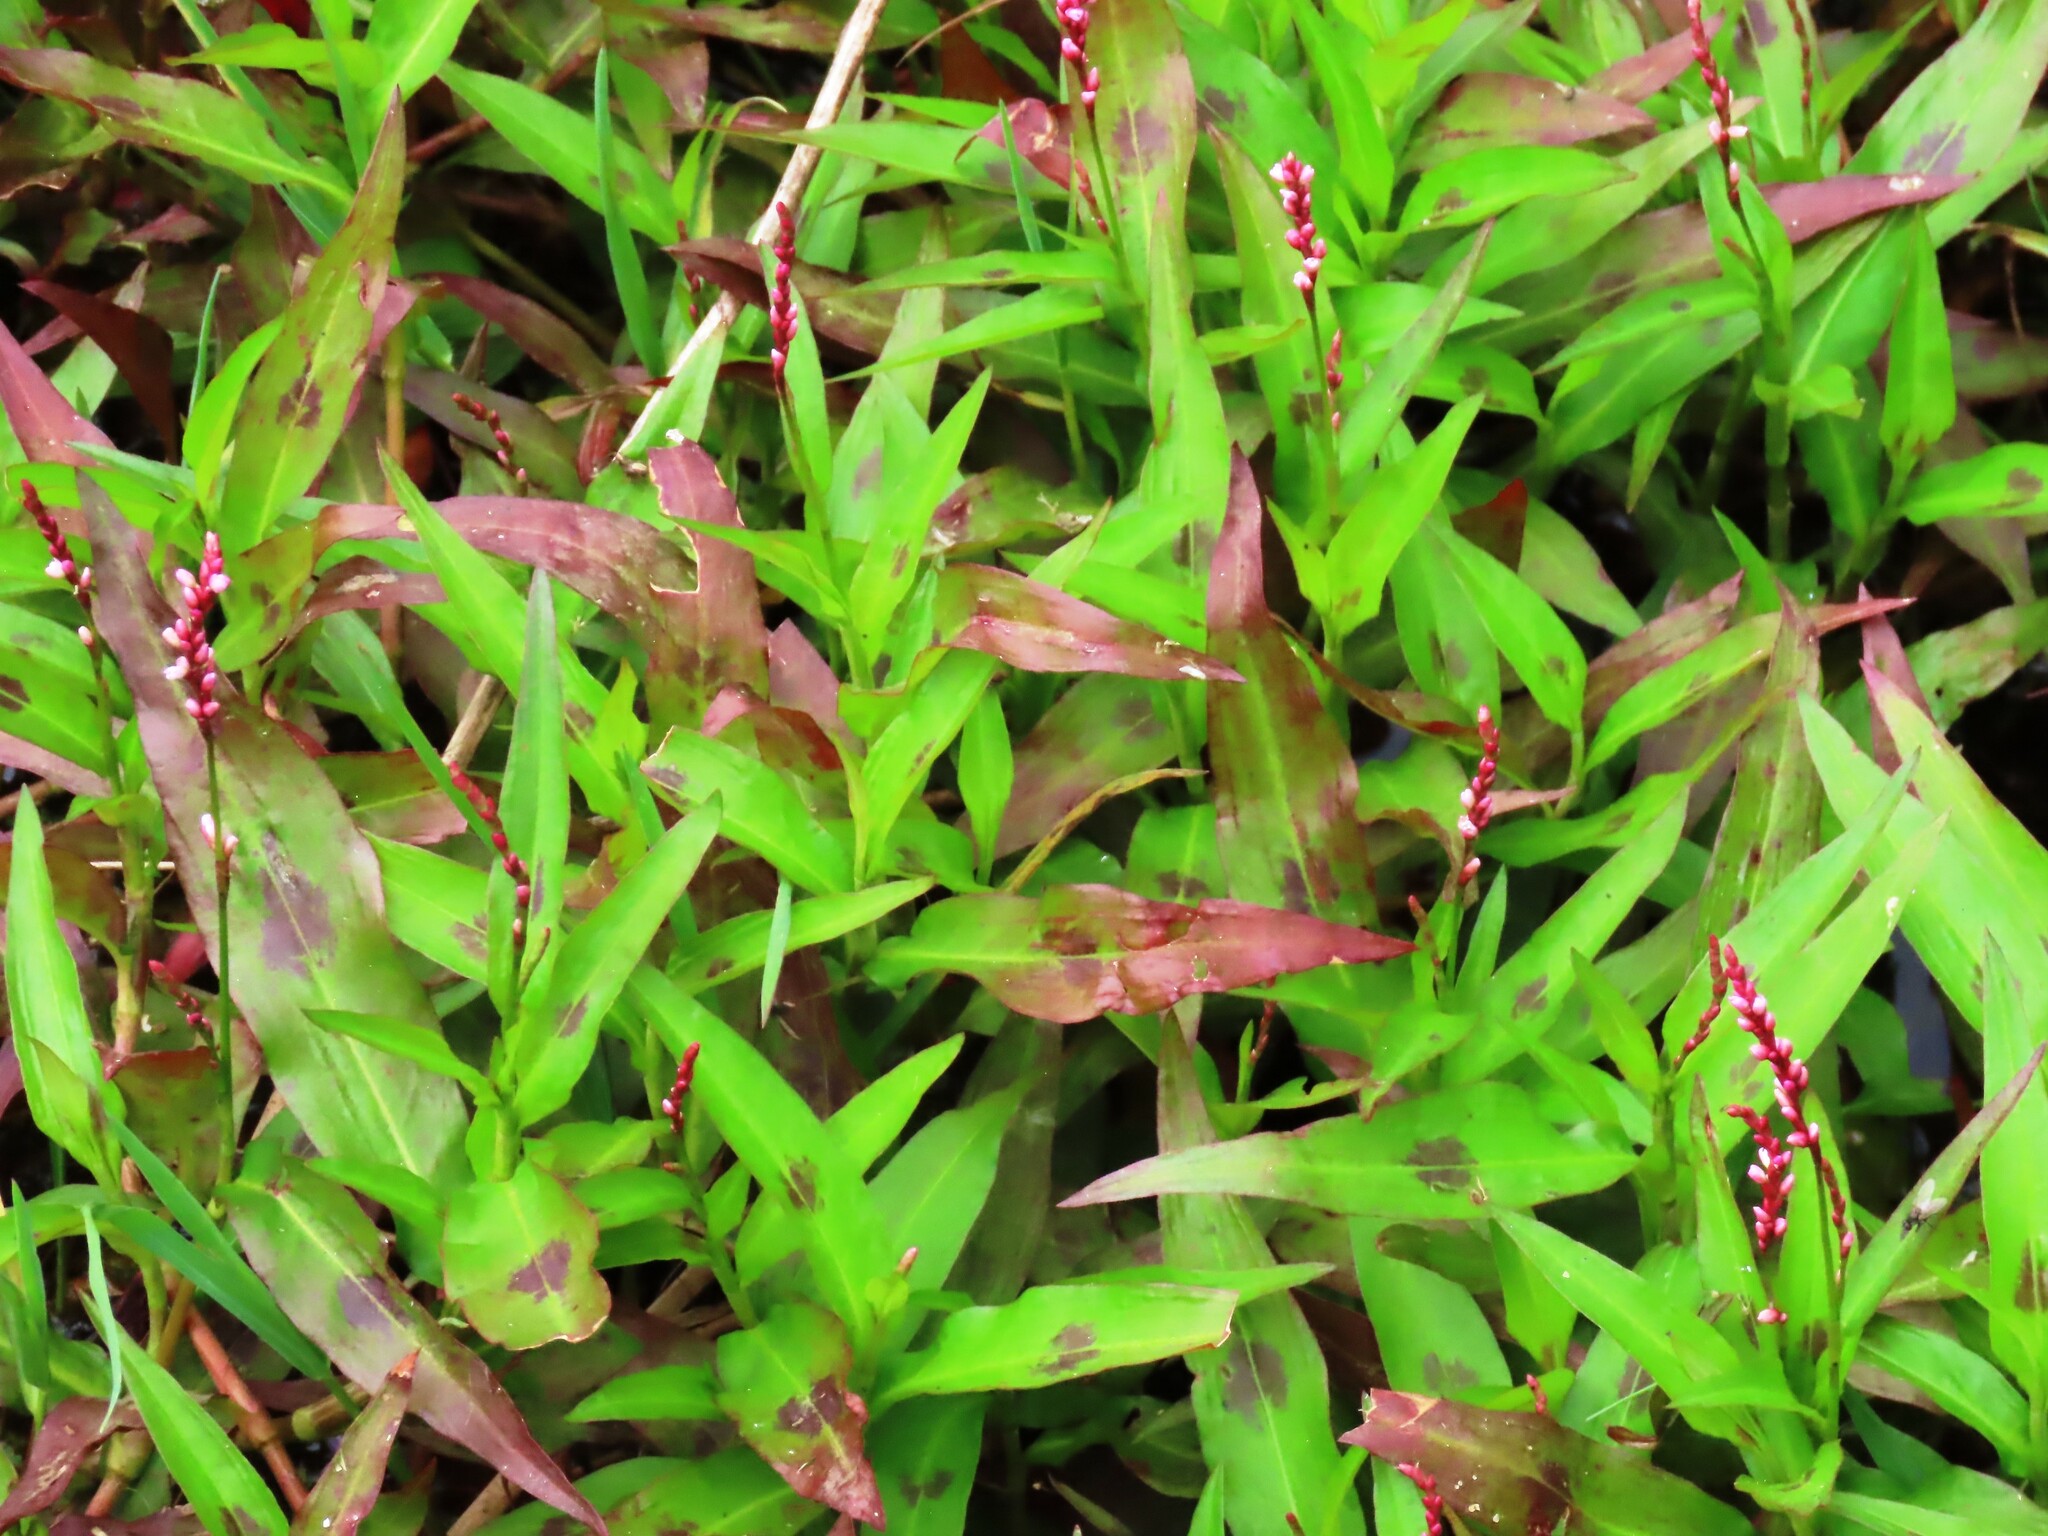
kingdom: Plantae
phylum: Tracheophyta
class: Magnoliopsida
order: Caryophyllales
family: Polygonaceae
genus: Persicaria
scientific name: Persicaria decipiens
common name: Willow-weed
